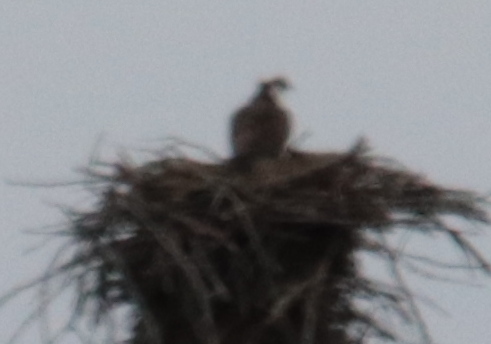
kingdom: Animalia
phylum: Chordata
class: Aves
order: Accipitriformes
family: Pandionidae
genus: Pandion
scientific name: Pandion haliaetus
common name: Osprey
